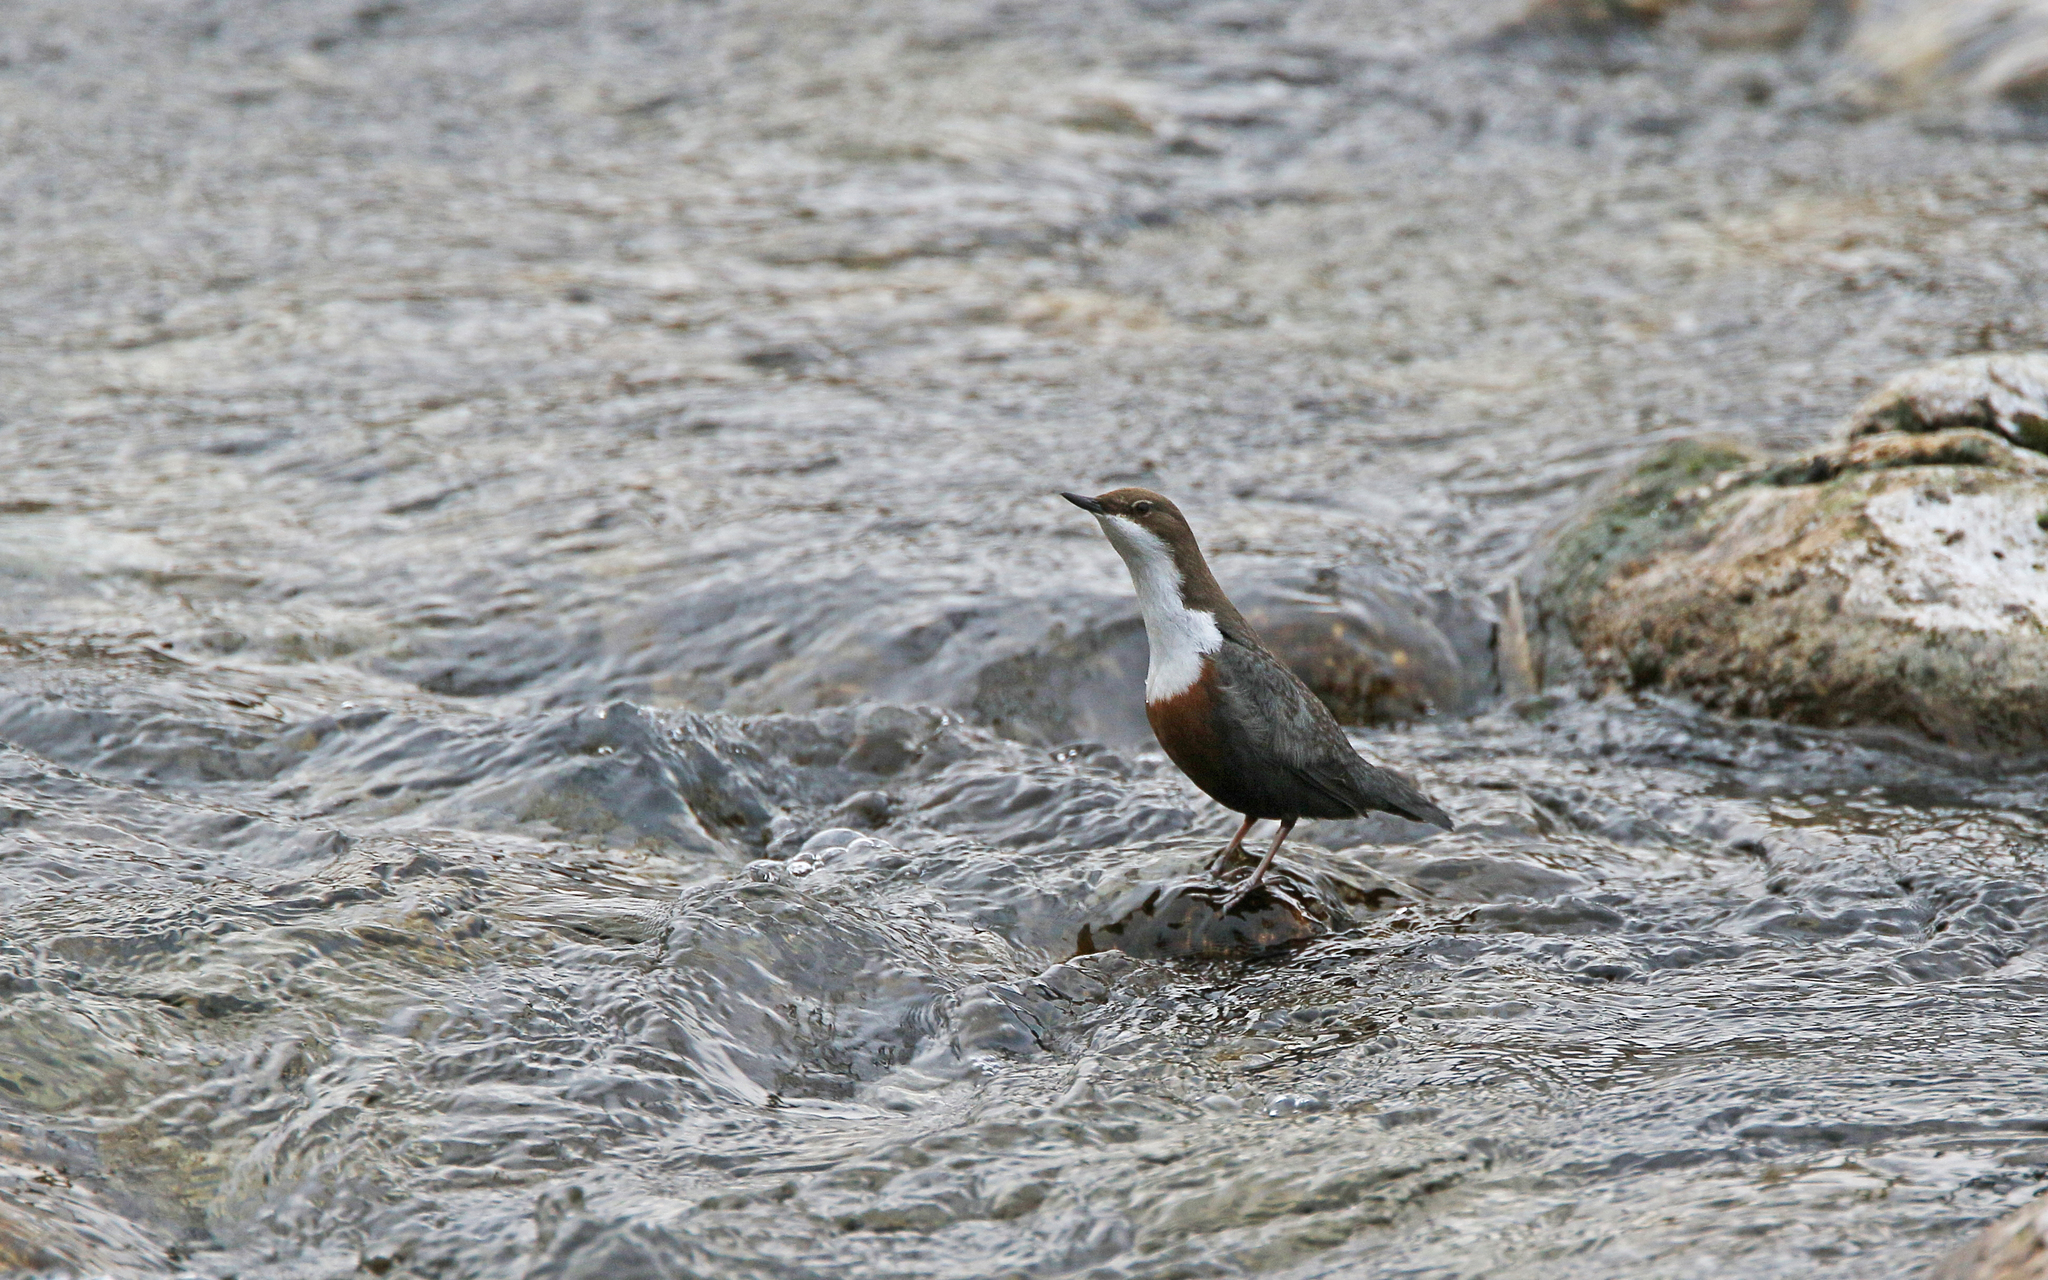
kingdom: Animalia
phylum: Chordata
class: Aves
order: Passeriformes
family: Cinclidae
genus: Cinclus
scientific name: Cinclus cinclus
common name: White-throated dipper
